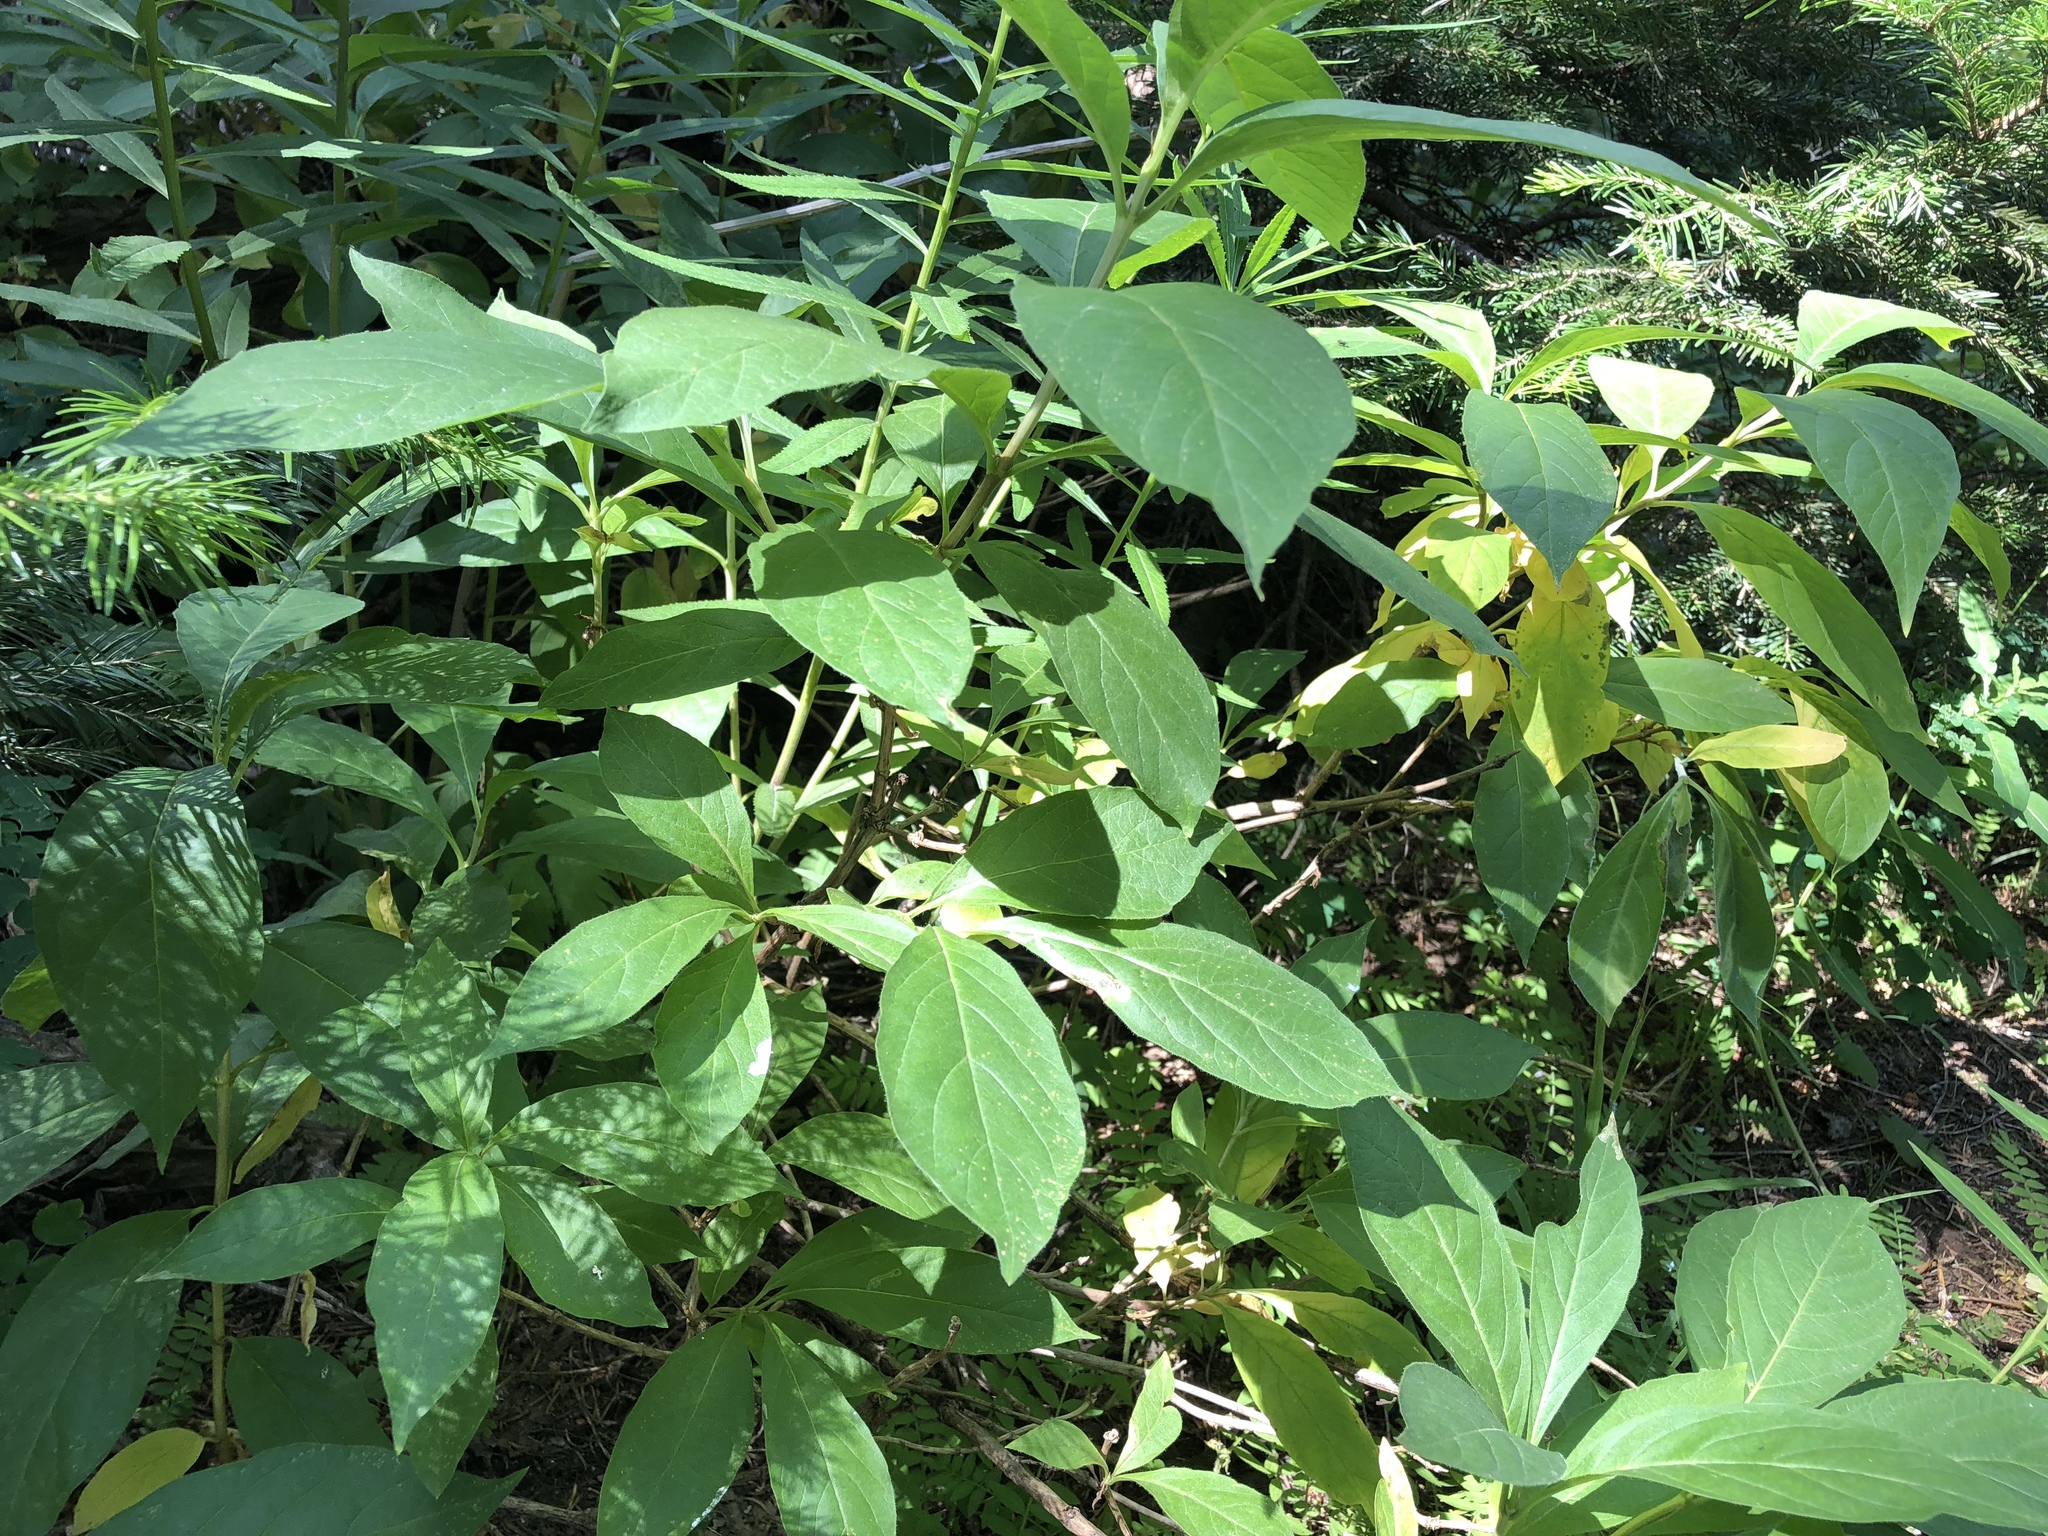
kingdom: Plantae
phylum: Tracheophyta
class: Magnoliopsida
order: Dipsacales
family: Caprifoliaceae
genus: Lonicera
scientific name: Lonicera involucrata
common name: Californian honeysuckle
